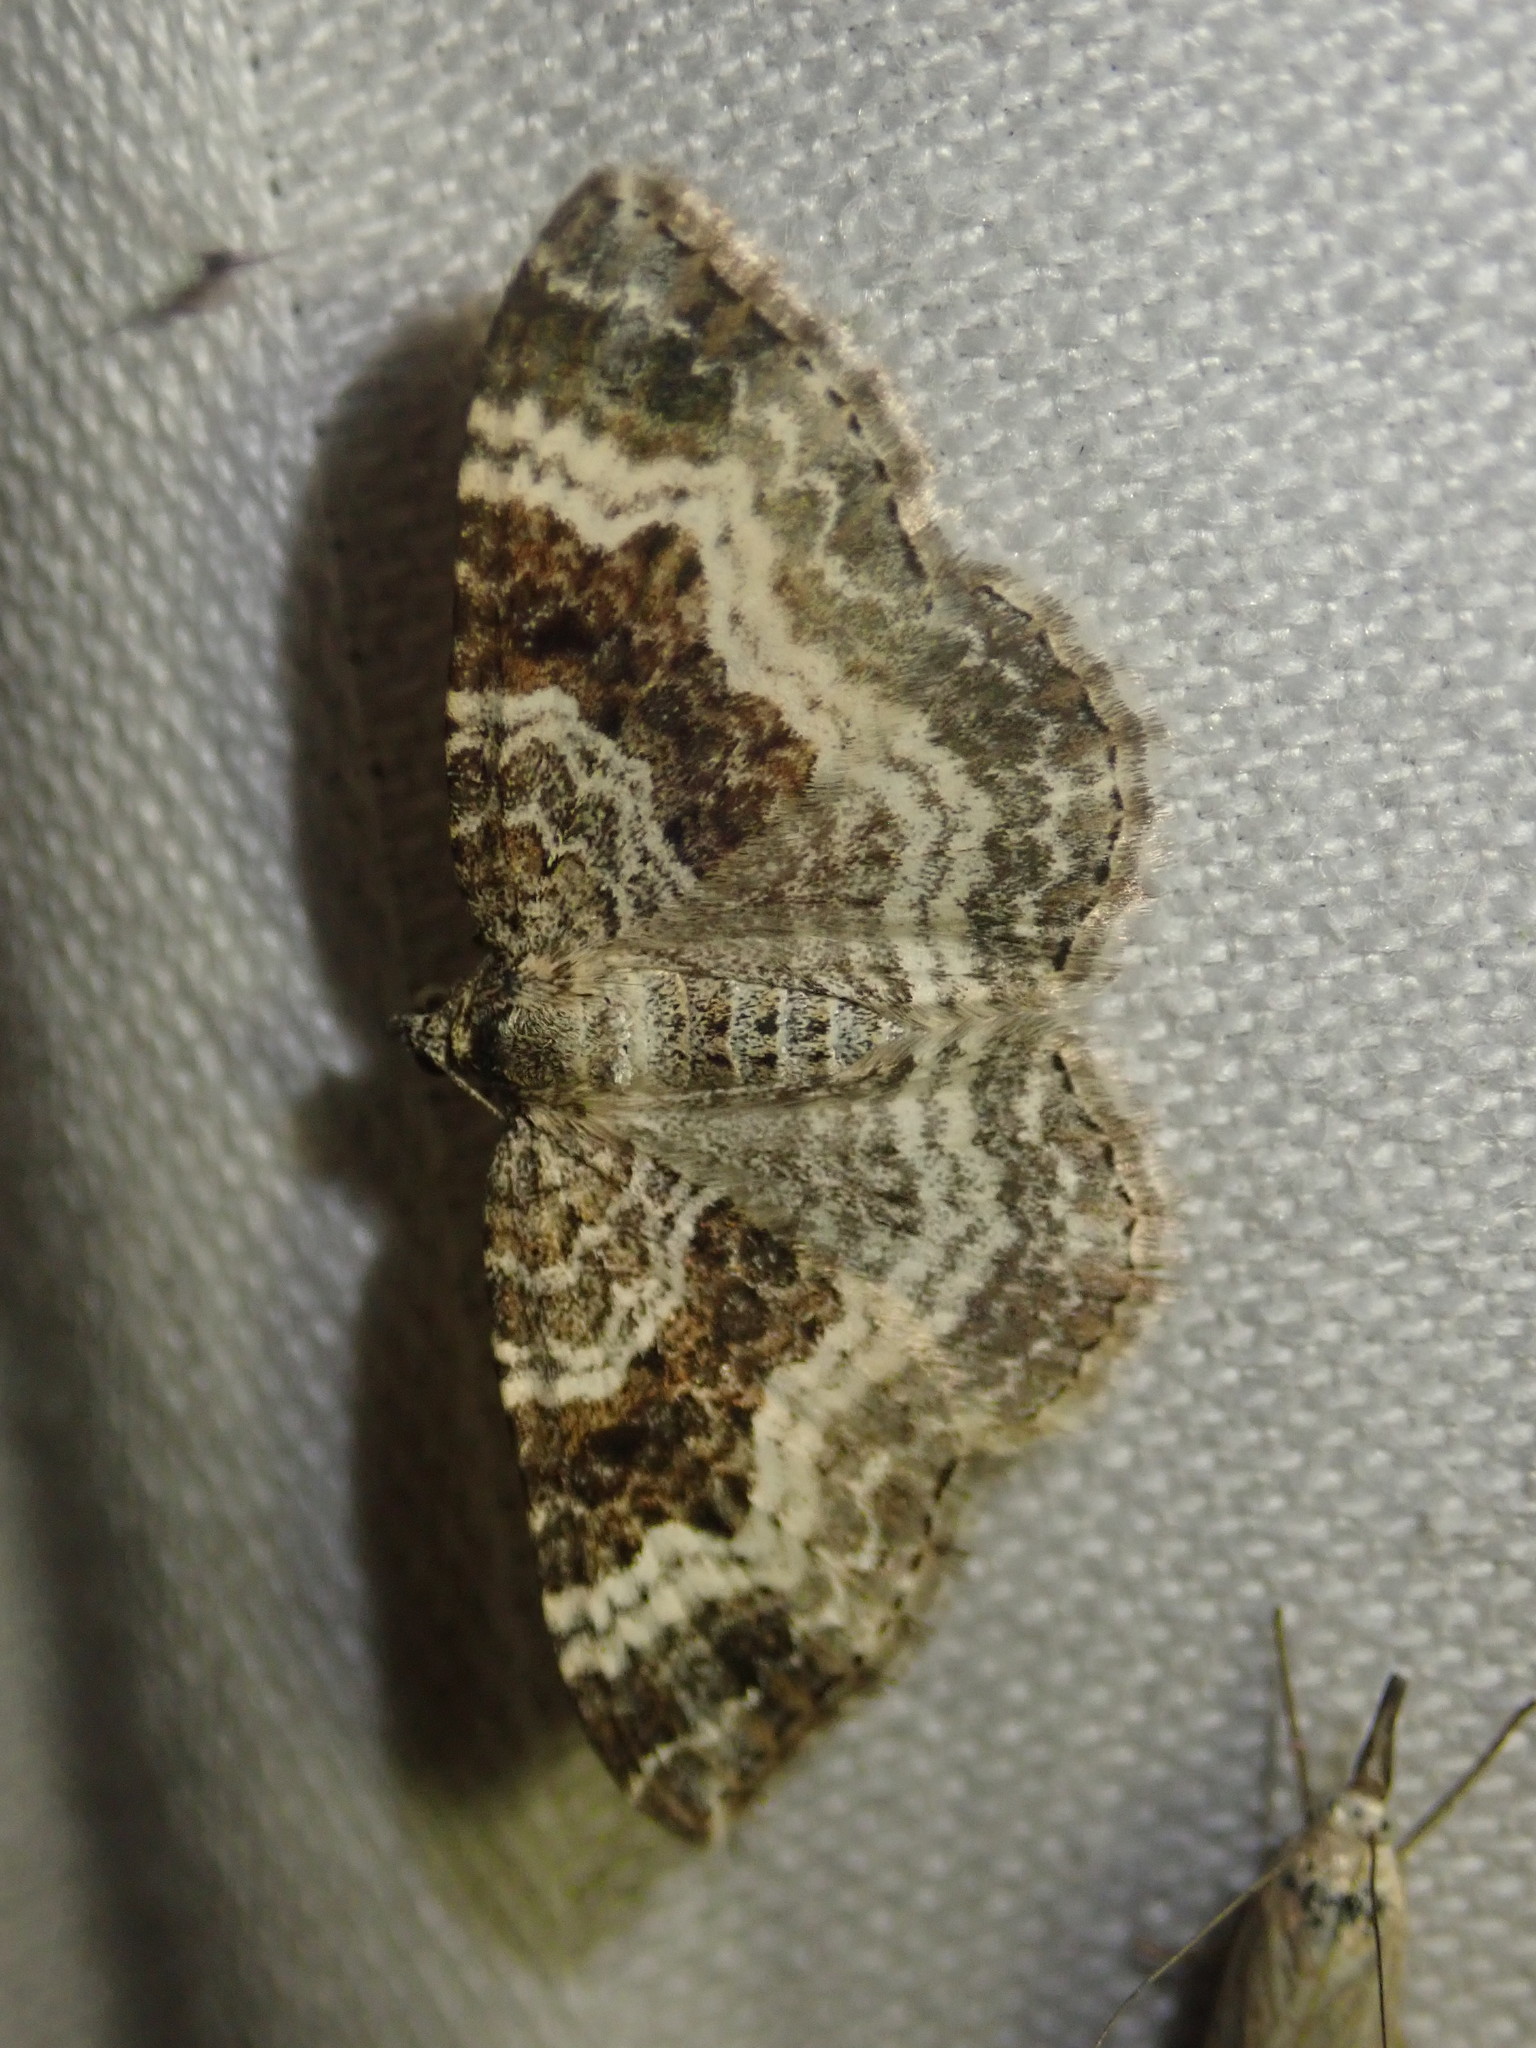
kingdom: Animalia
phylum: Arthropoda
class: Insecta
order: Lepidoptera
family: Geometridae
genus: Epirrhoe
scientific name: Epirrhoe alternata
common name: Common carpet
